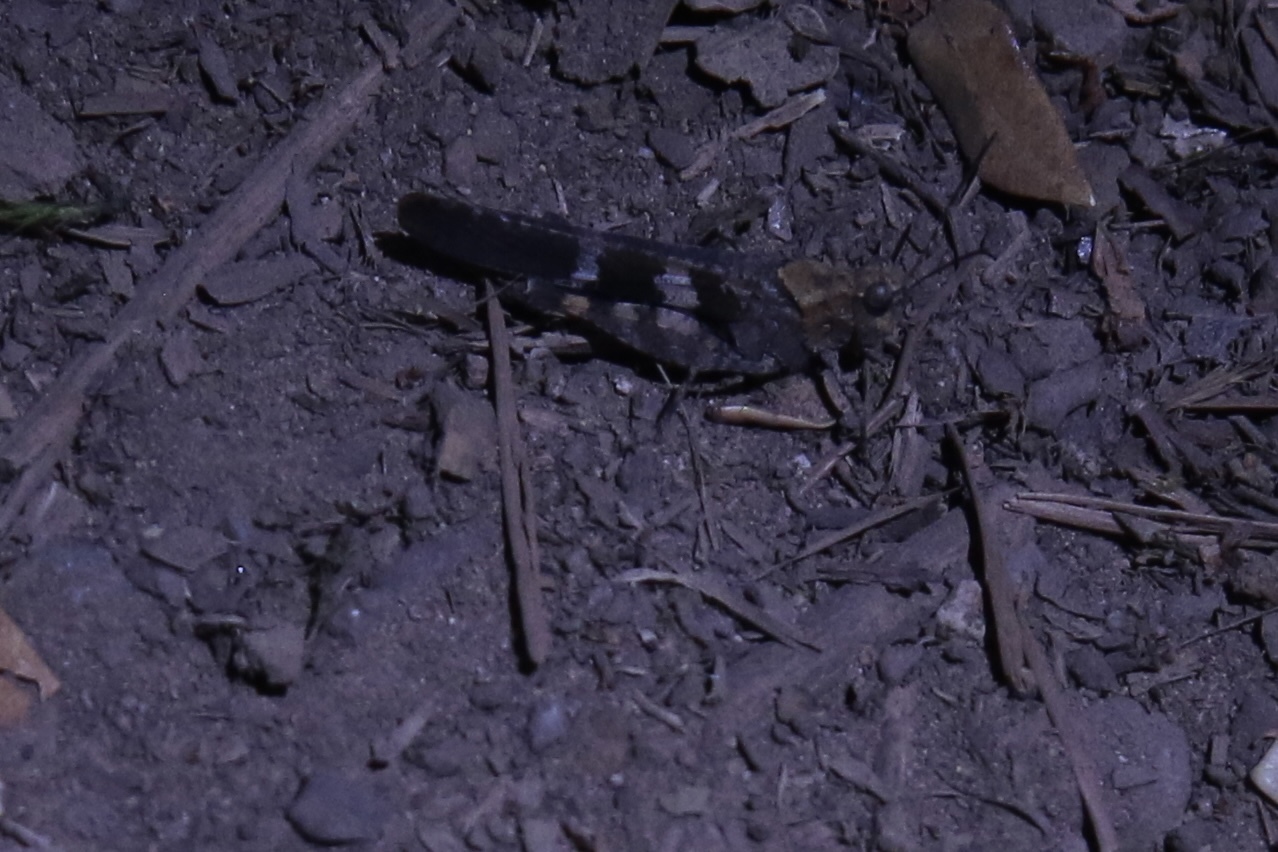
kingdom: Animalia
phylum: Arthropoda
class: Insecta
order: Orthoptera
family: Acrididae
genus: Trimerotropis
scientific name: Trimerotropis fontana
